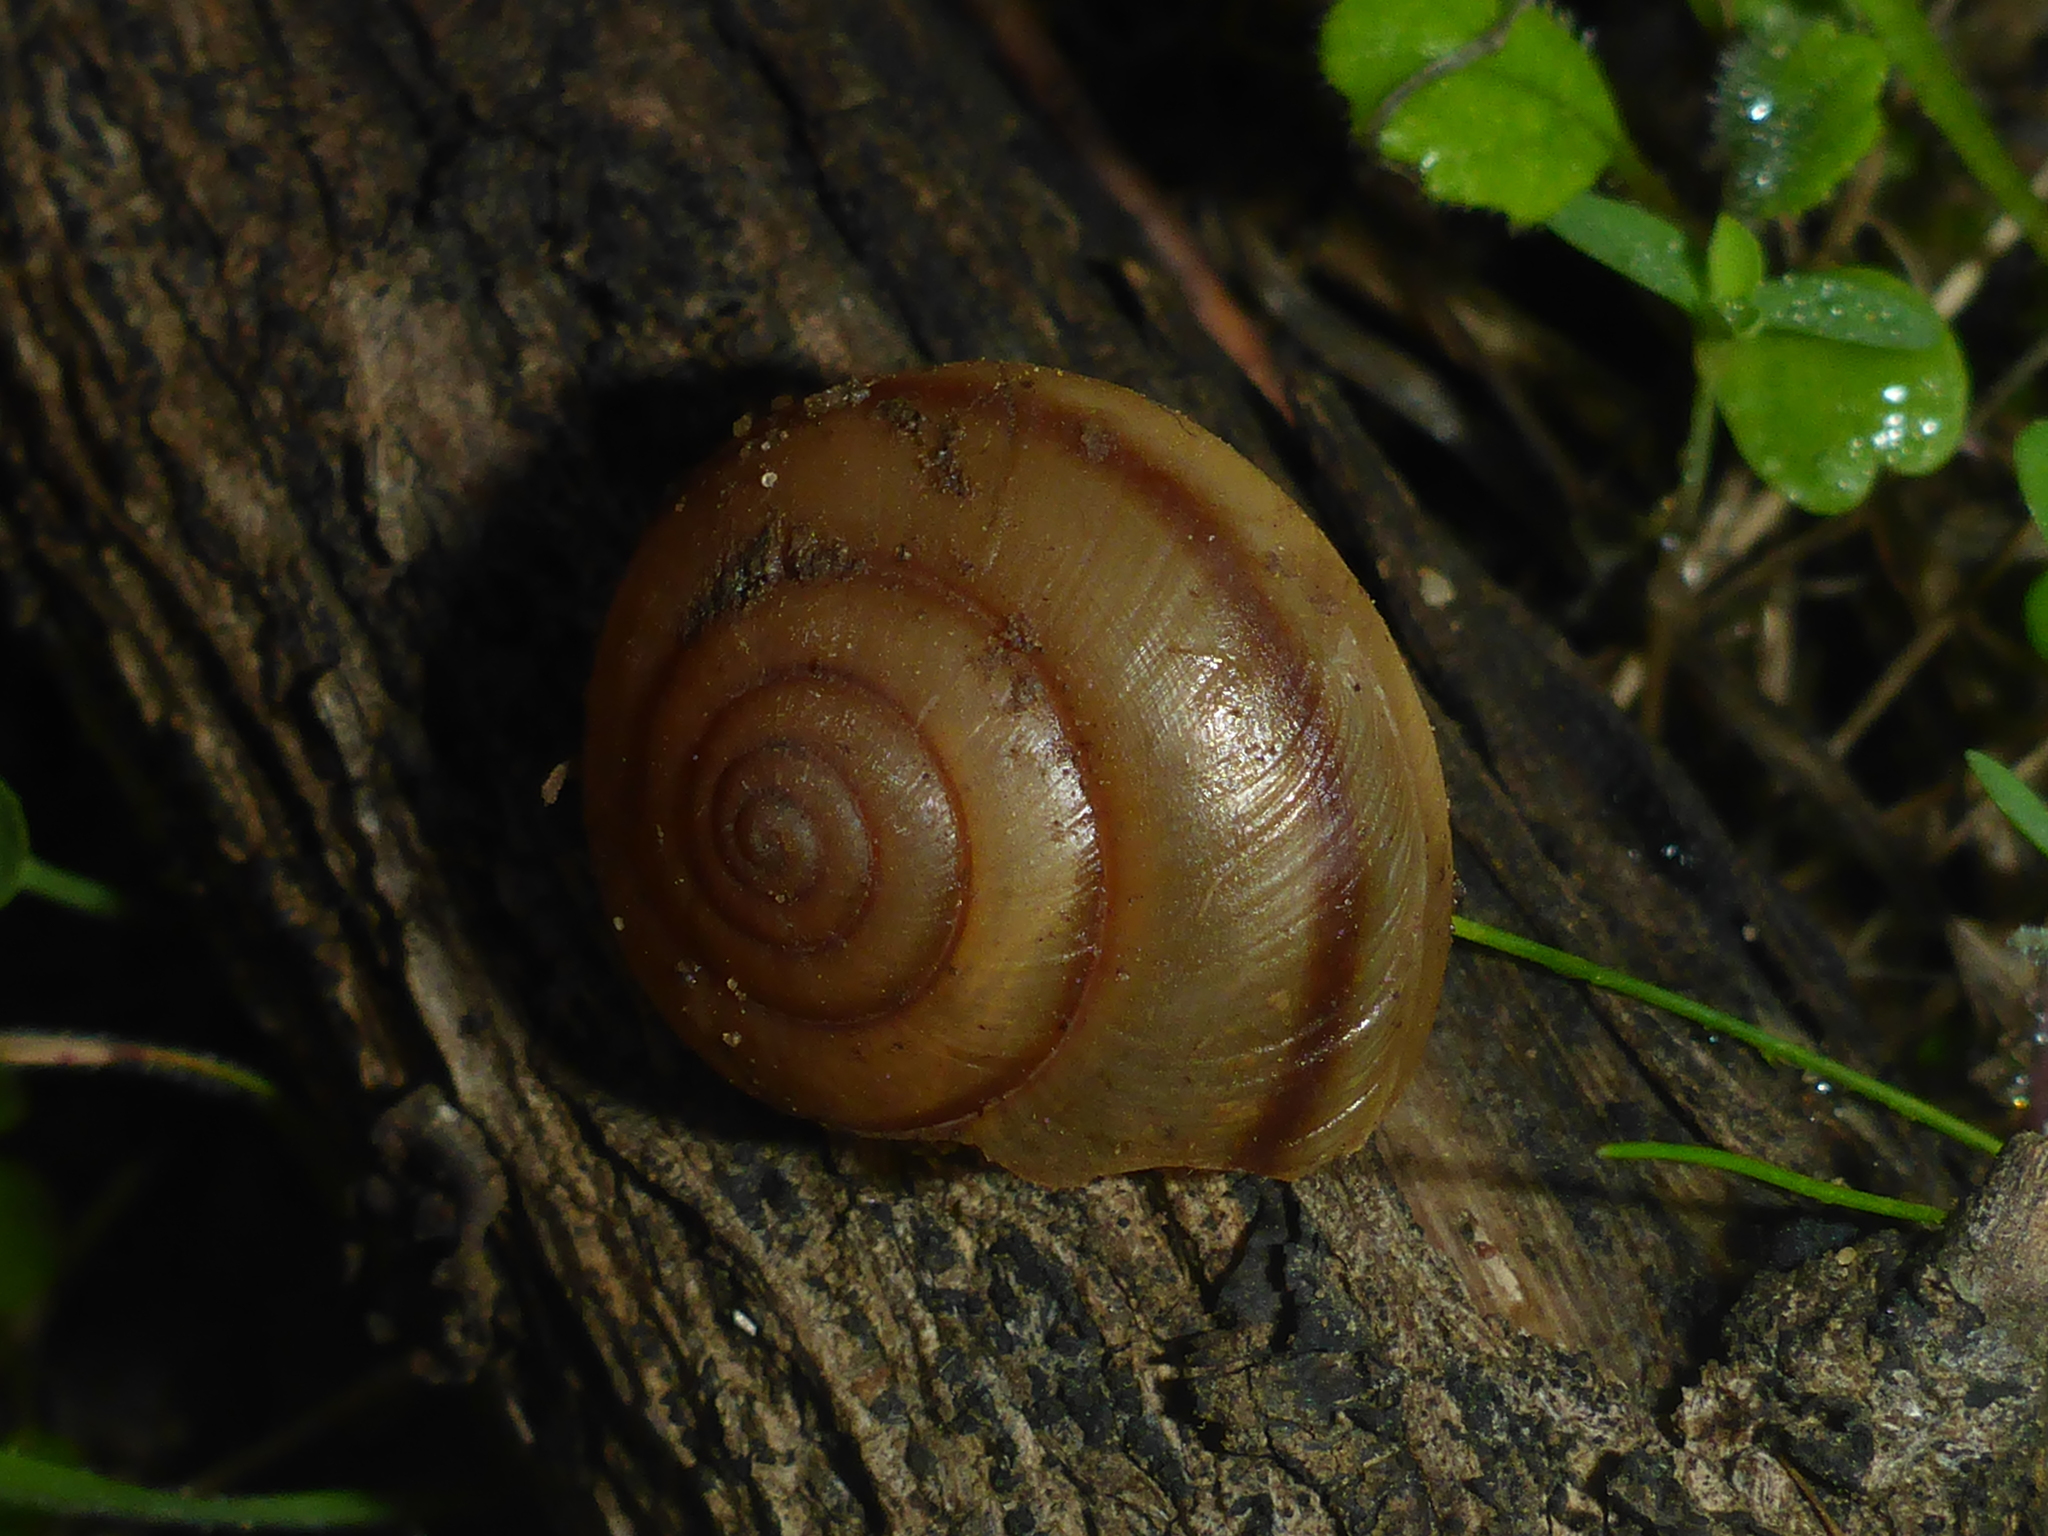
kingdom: Animalia
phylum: Mollusca
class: Gastropoda
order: Stylommatophora
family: Xanthonychidae
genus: Helminthoglypta
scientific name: Helminthoglypta phlyctaena
